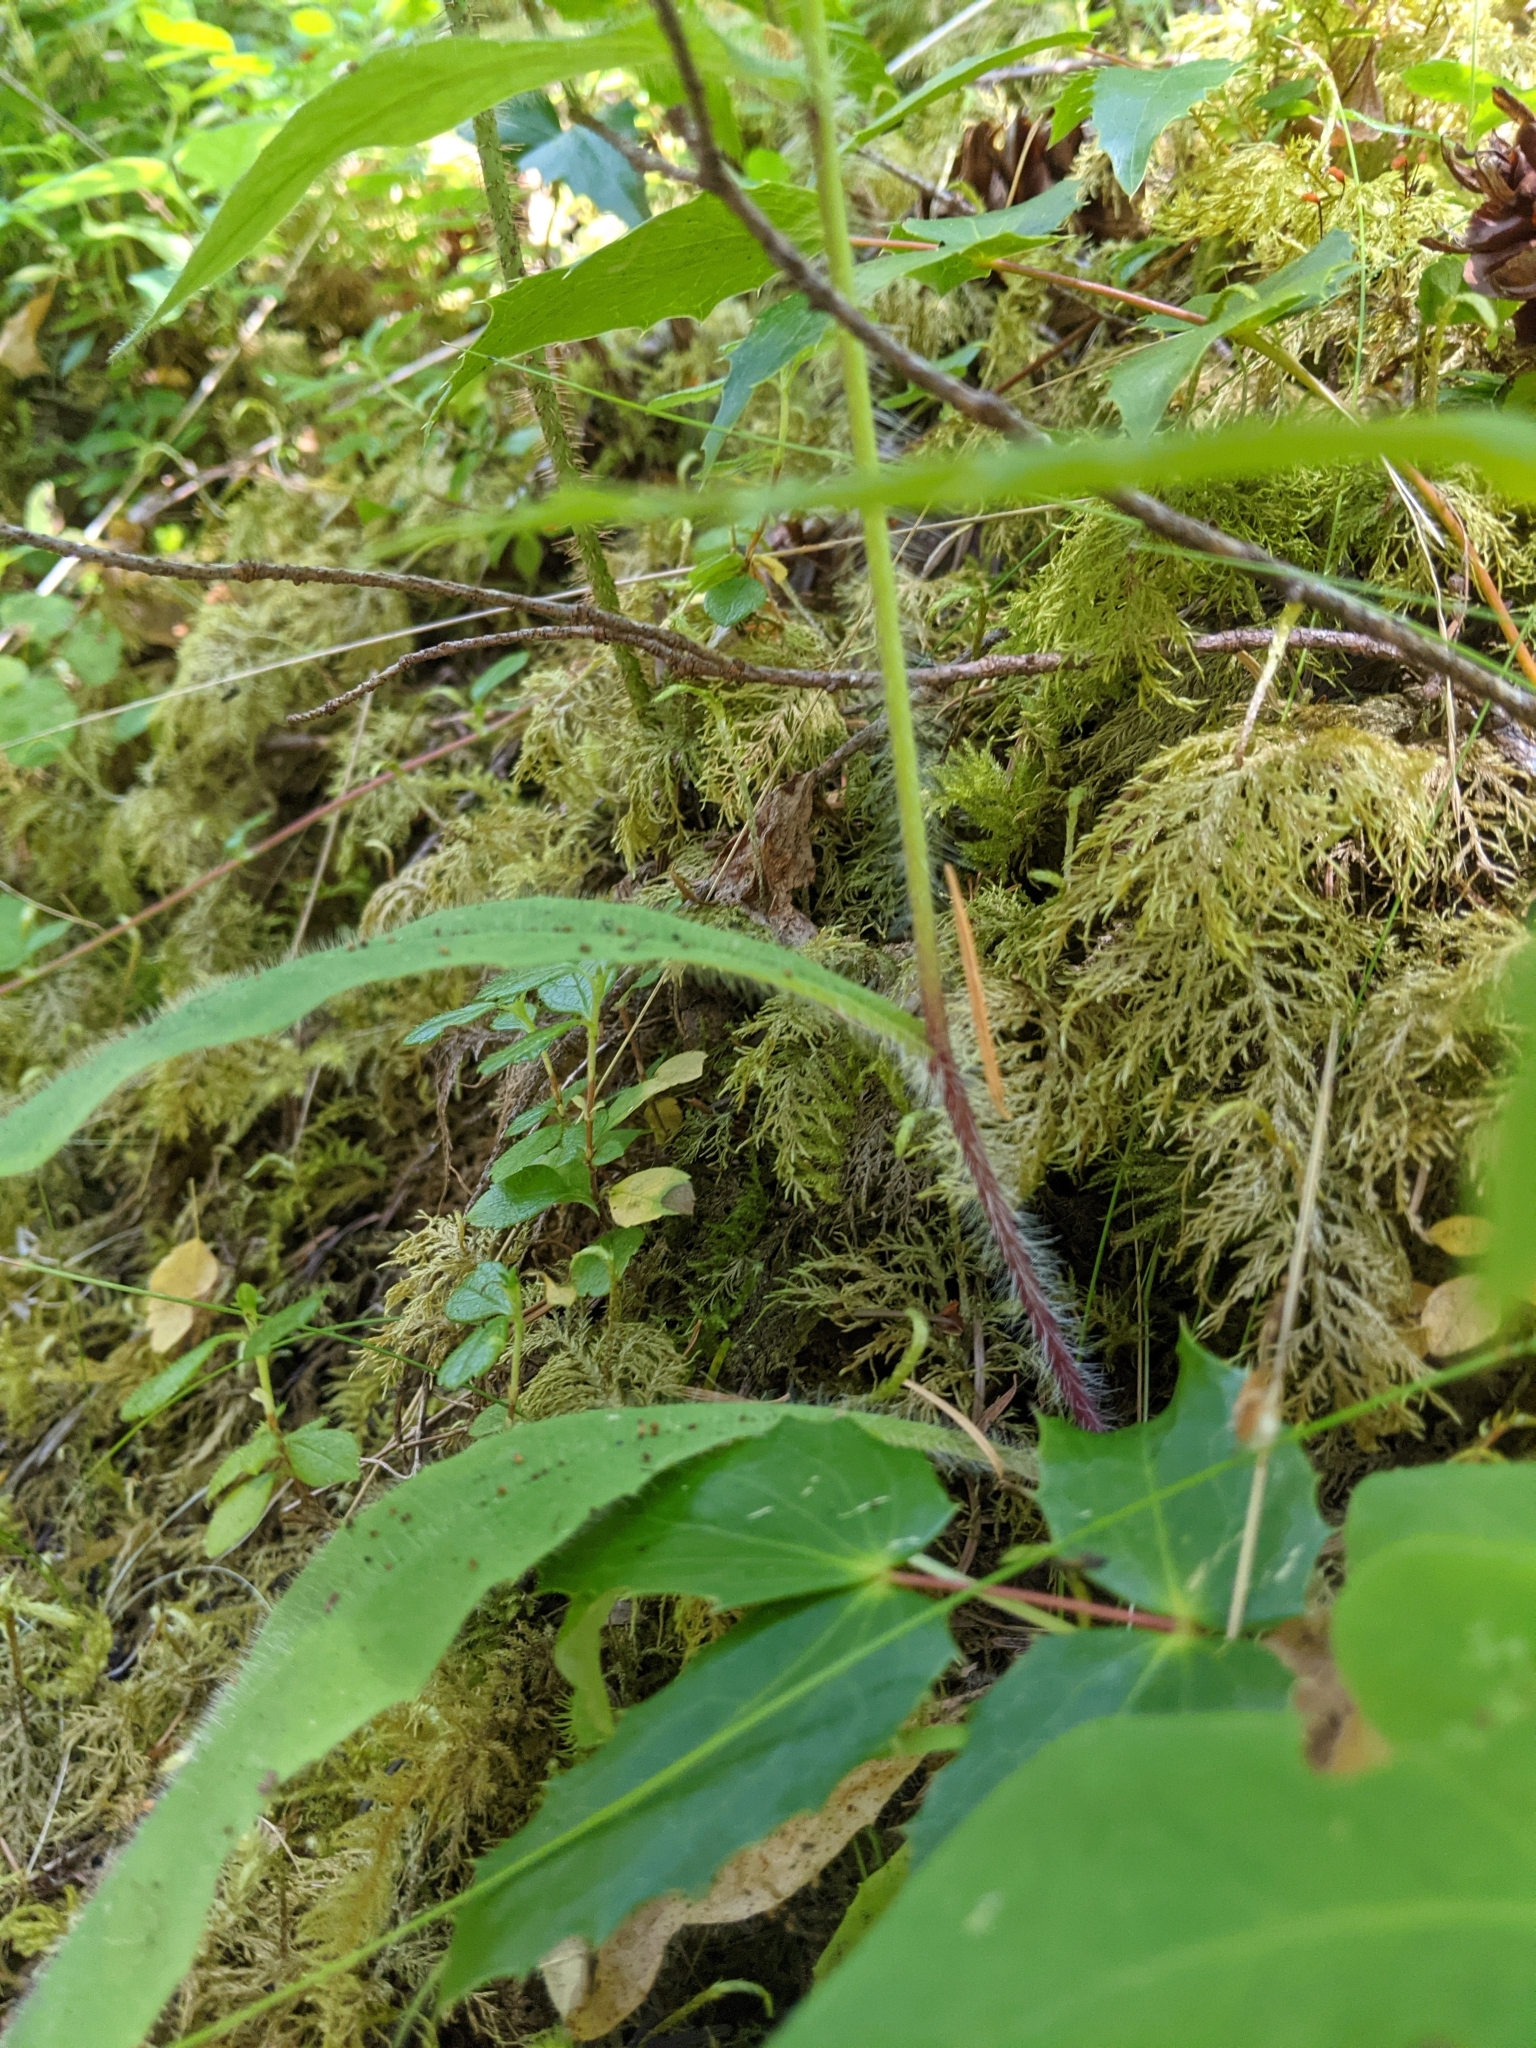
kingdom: Plantae
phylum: Tracheophyta
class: Magnoliopsida
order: Asterales
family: Asteraceae
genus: Hieracium
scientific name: Hieracium albiflorum
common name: White hawkweed
